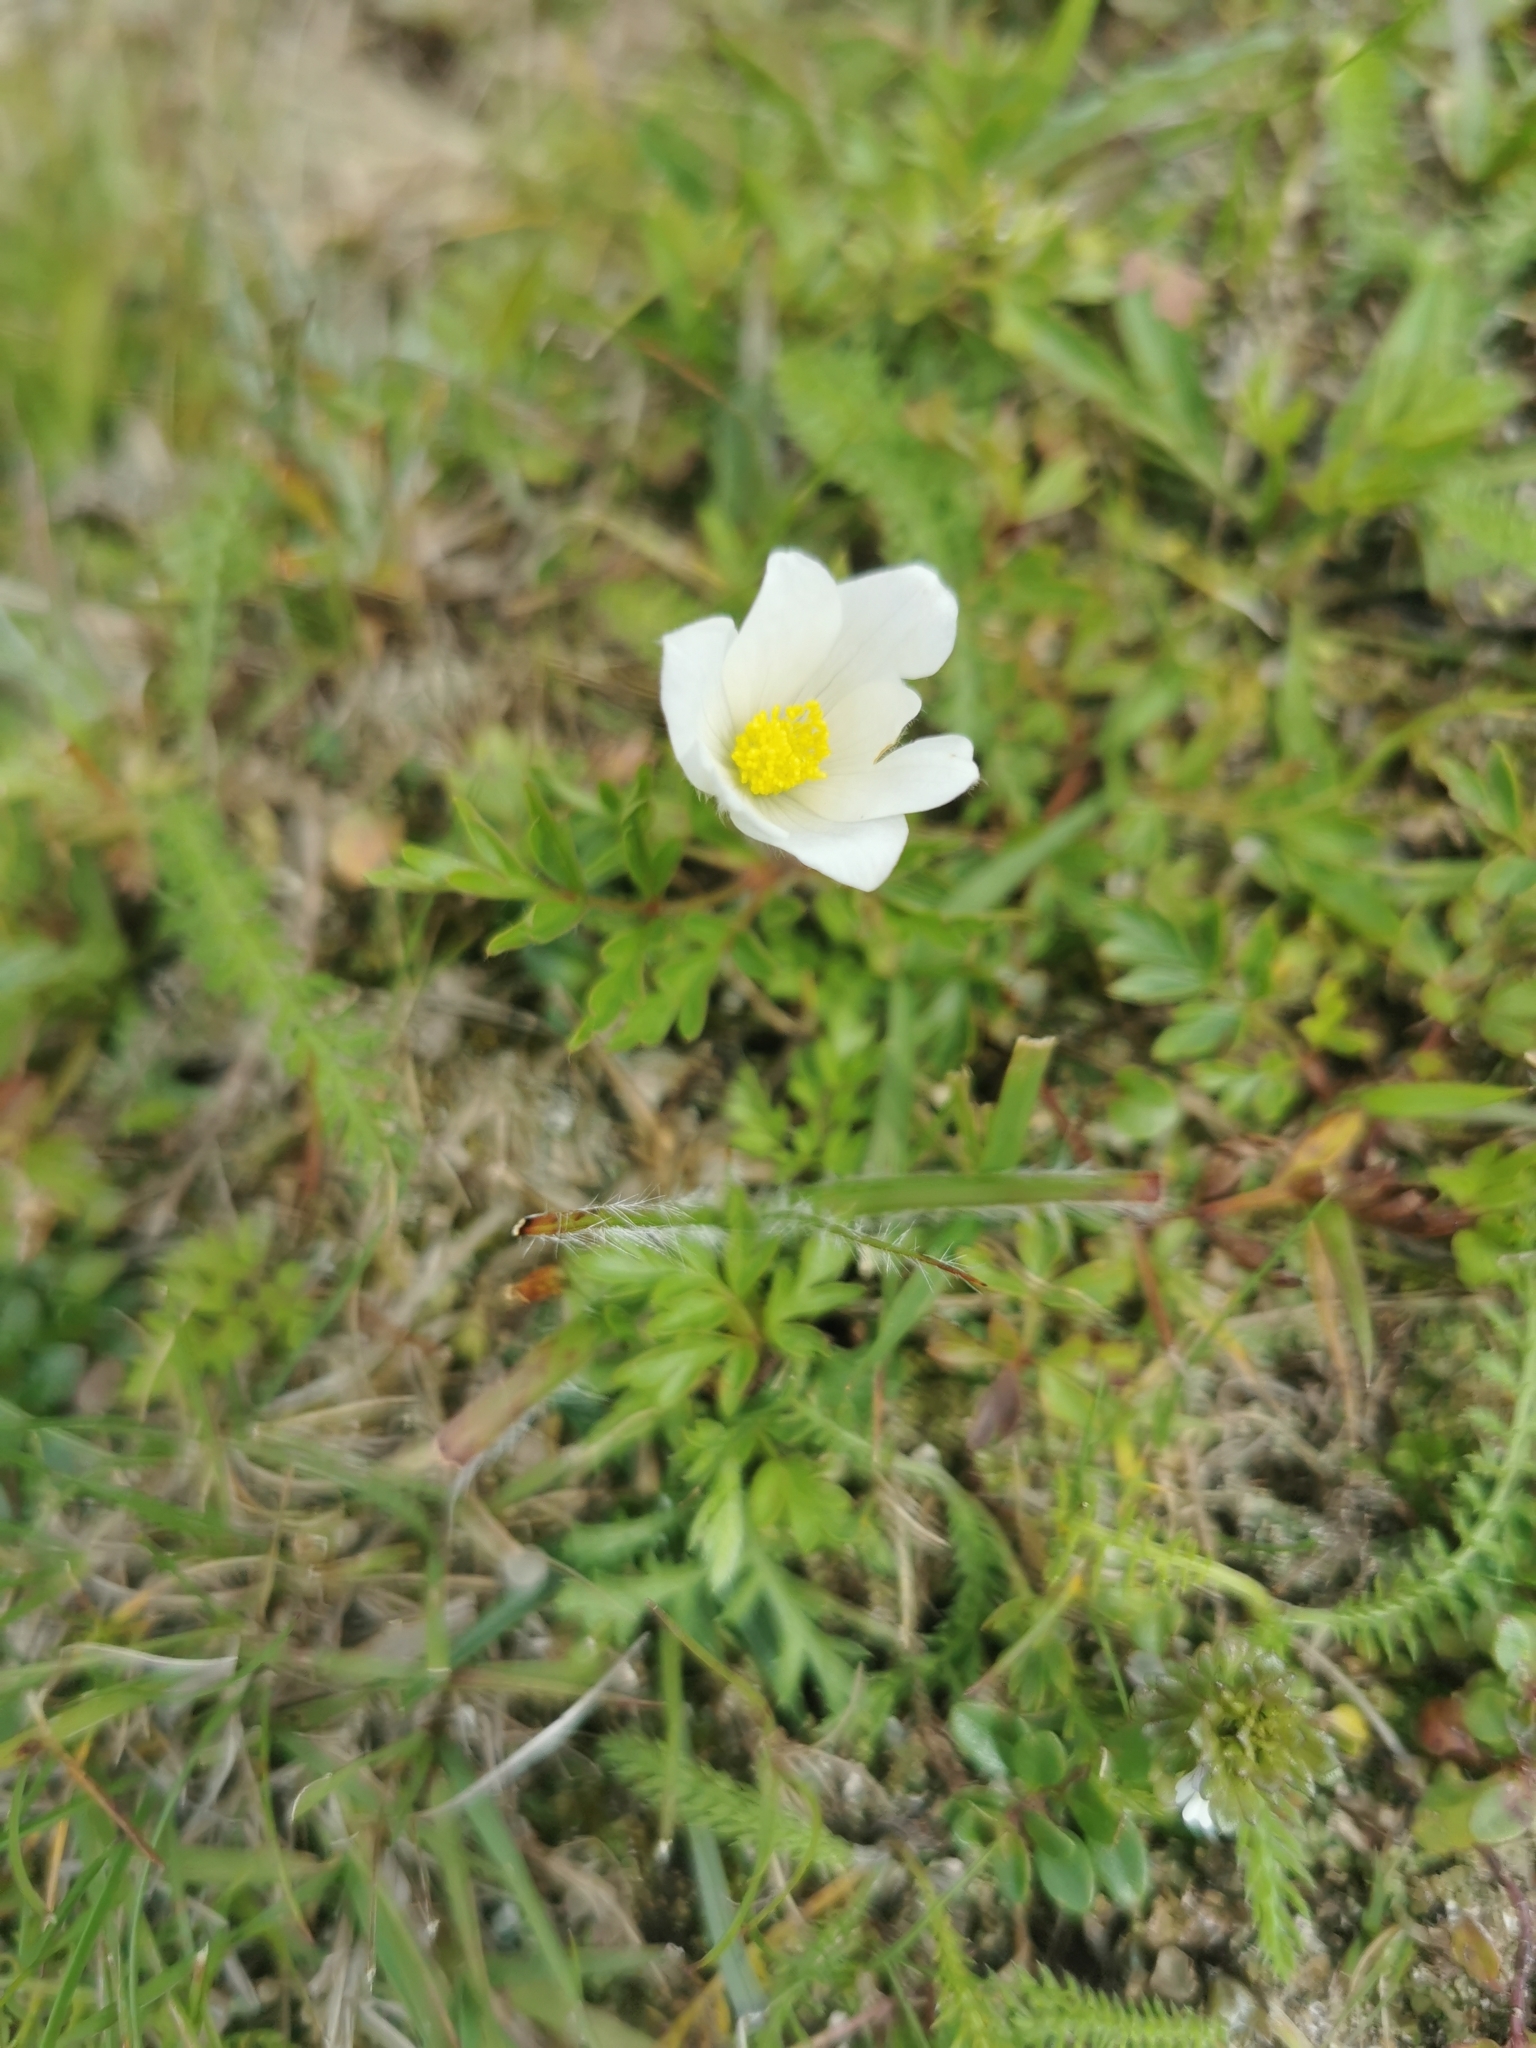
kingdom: Plantae
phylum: Tracheophyta
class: Magnoliopsida
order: Ranunculales
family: Ranunculaceae
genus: Pulsatilla
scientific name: Pulsatilla alpina
